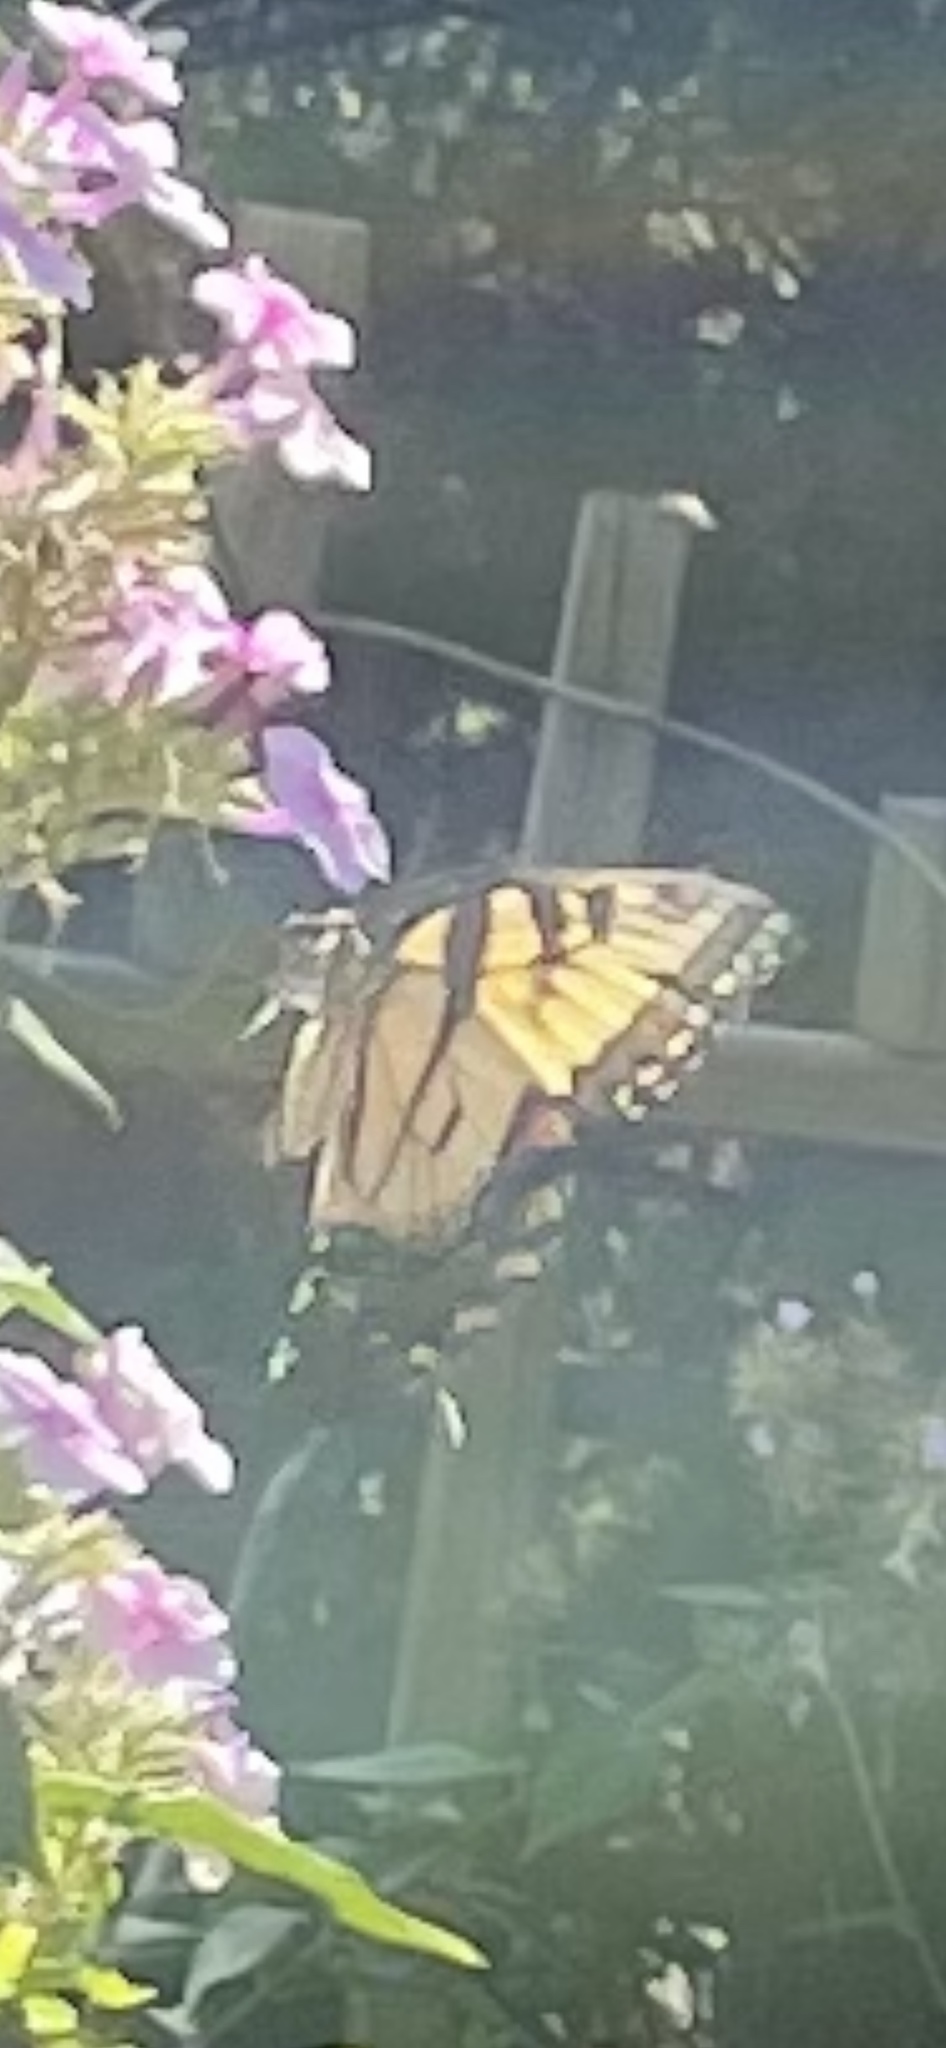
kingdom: Animalia
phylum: Arthropoda
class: Insecta
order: Lepidoptera
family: Papilionidae
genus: Papilio
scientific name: Papilio glaucus
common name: Tiger swallowtail
